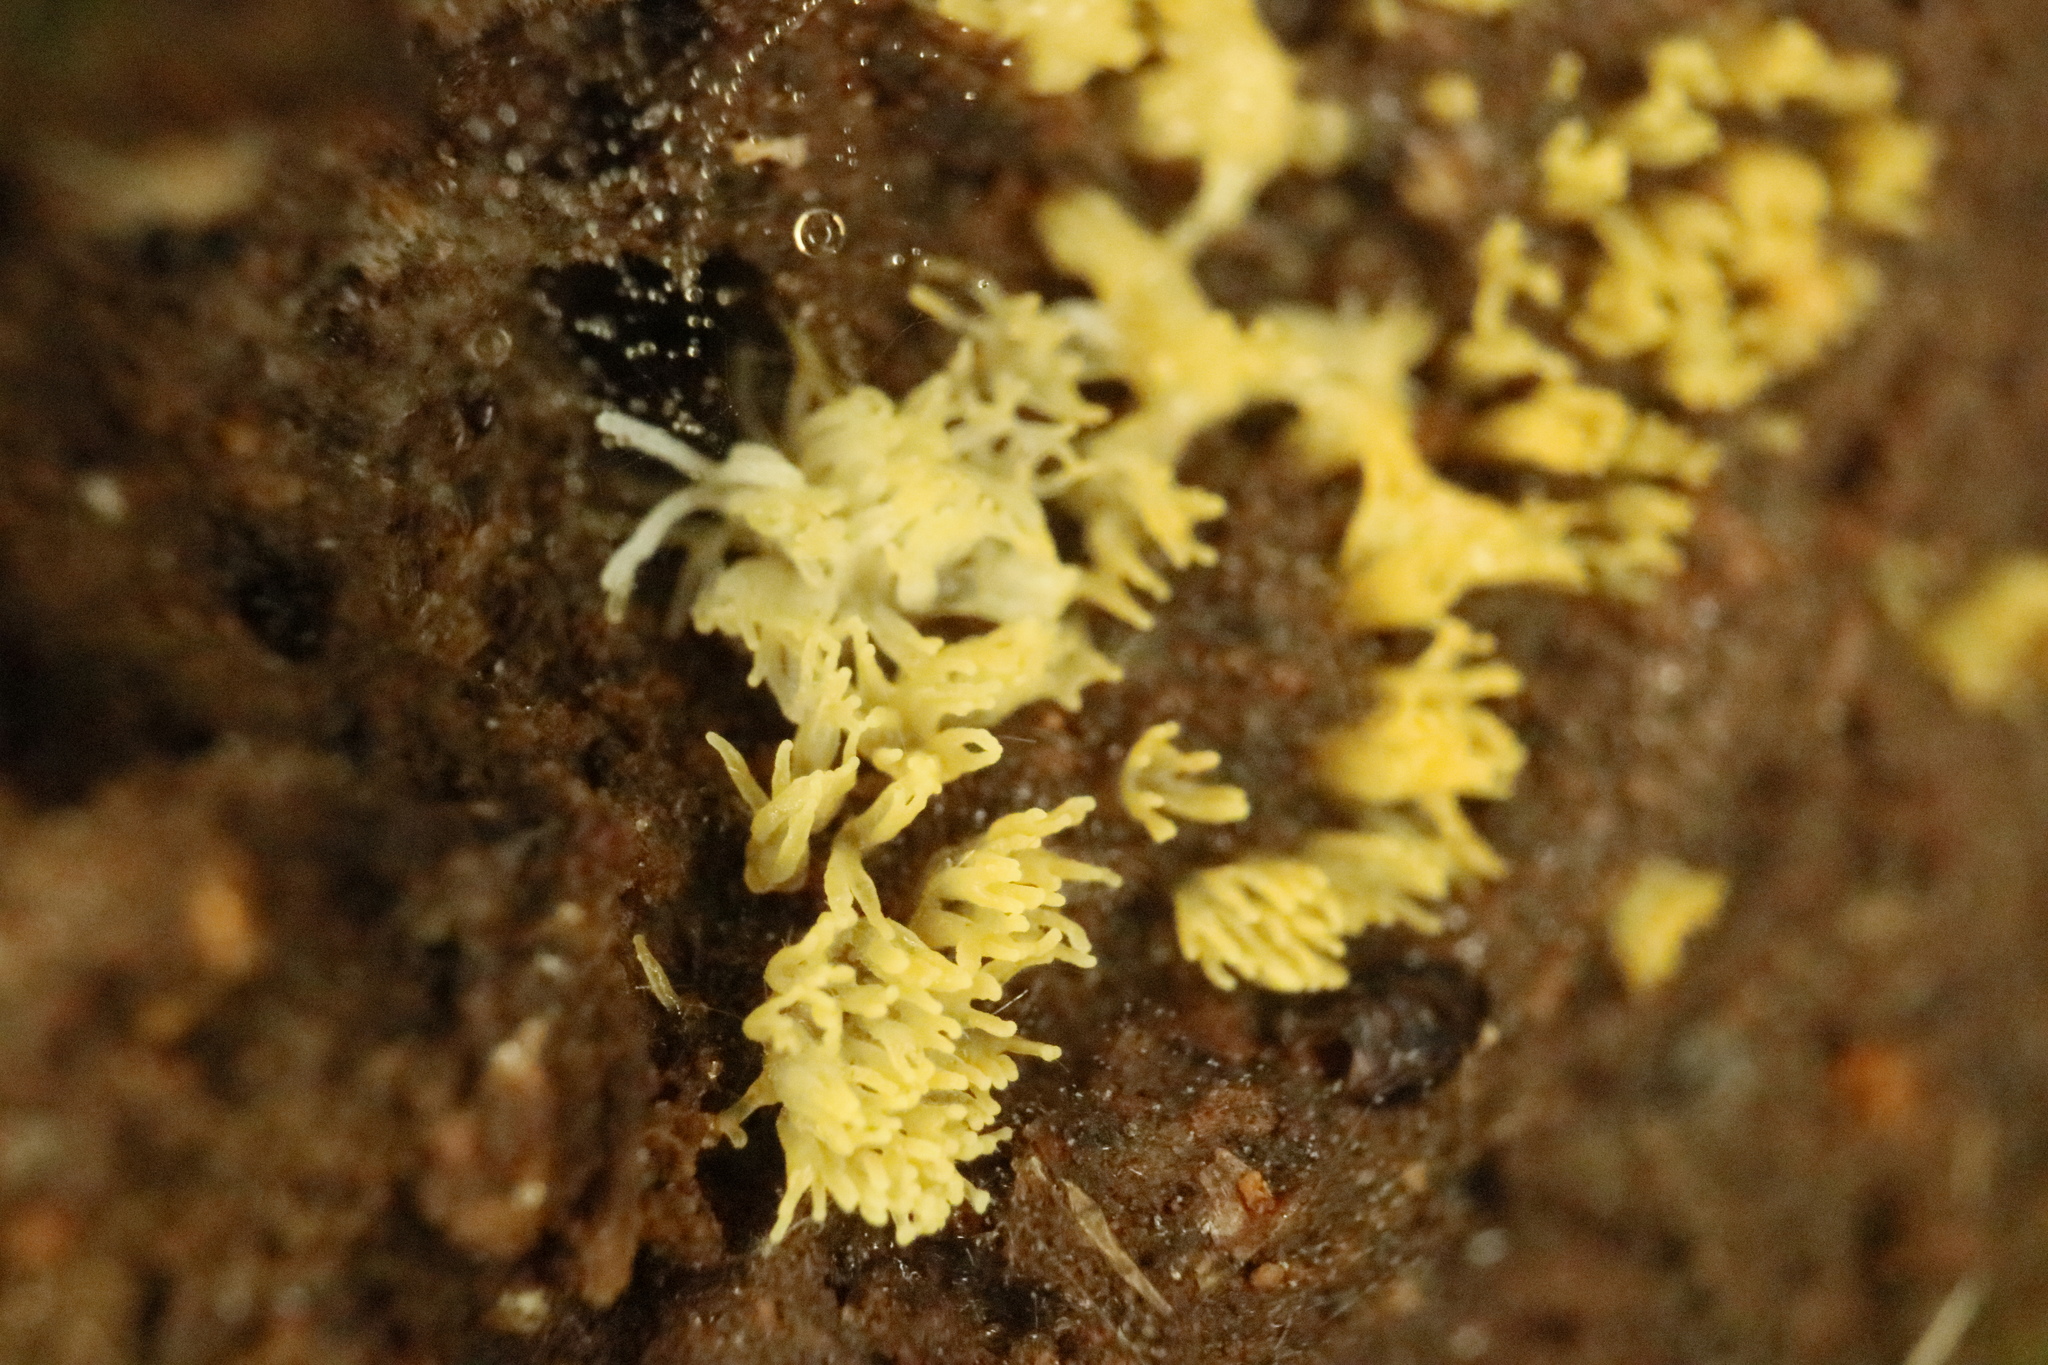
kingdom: Protozoa
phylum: Mycetozoa
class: Protosteliomycetes
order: Ceratiomyxales
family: Ceratiomyxaceae
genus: Ceratiomyxa
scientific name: Ceratiomyxa fruticulosa
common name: Honeycomb coral slime mold
